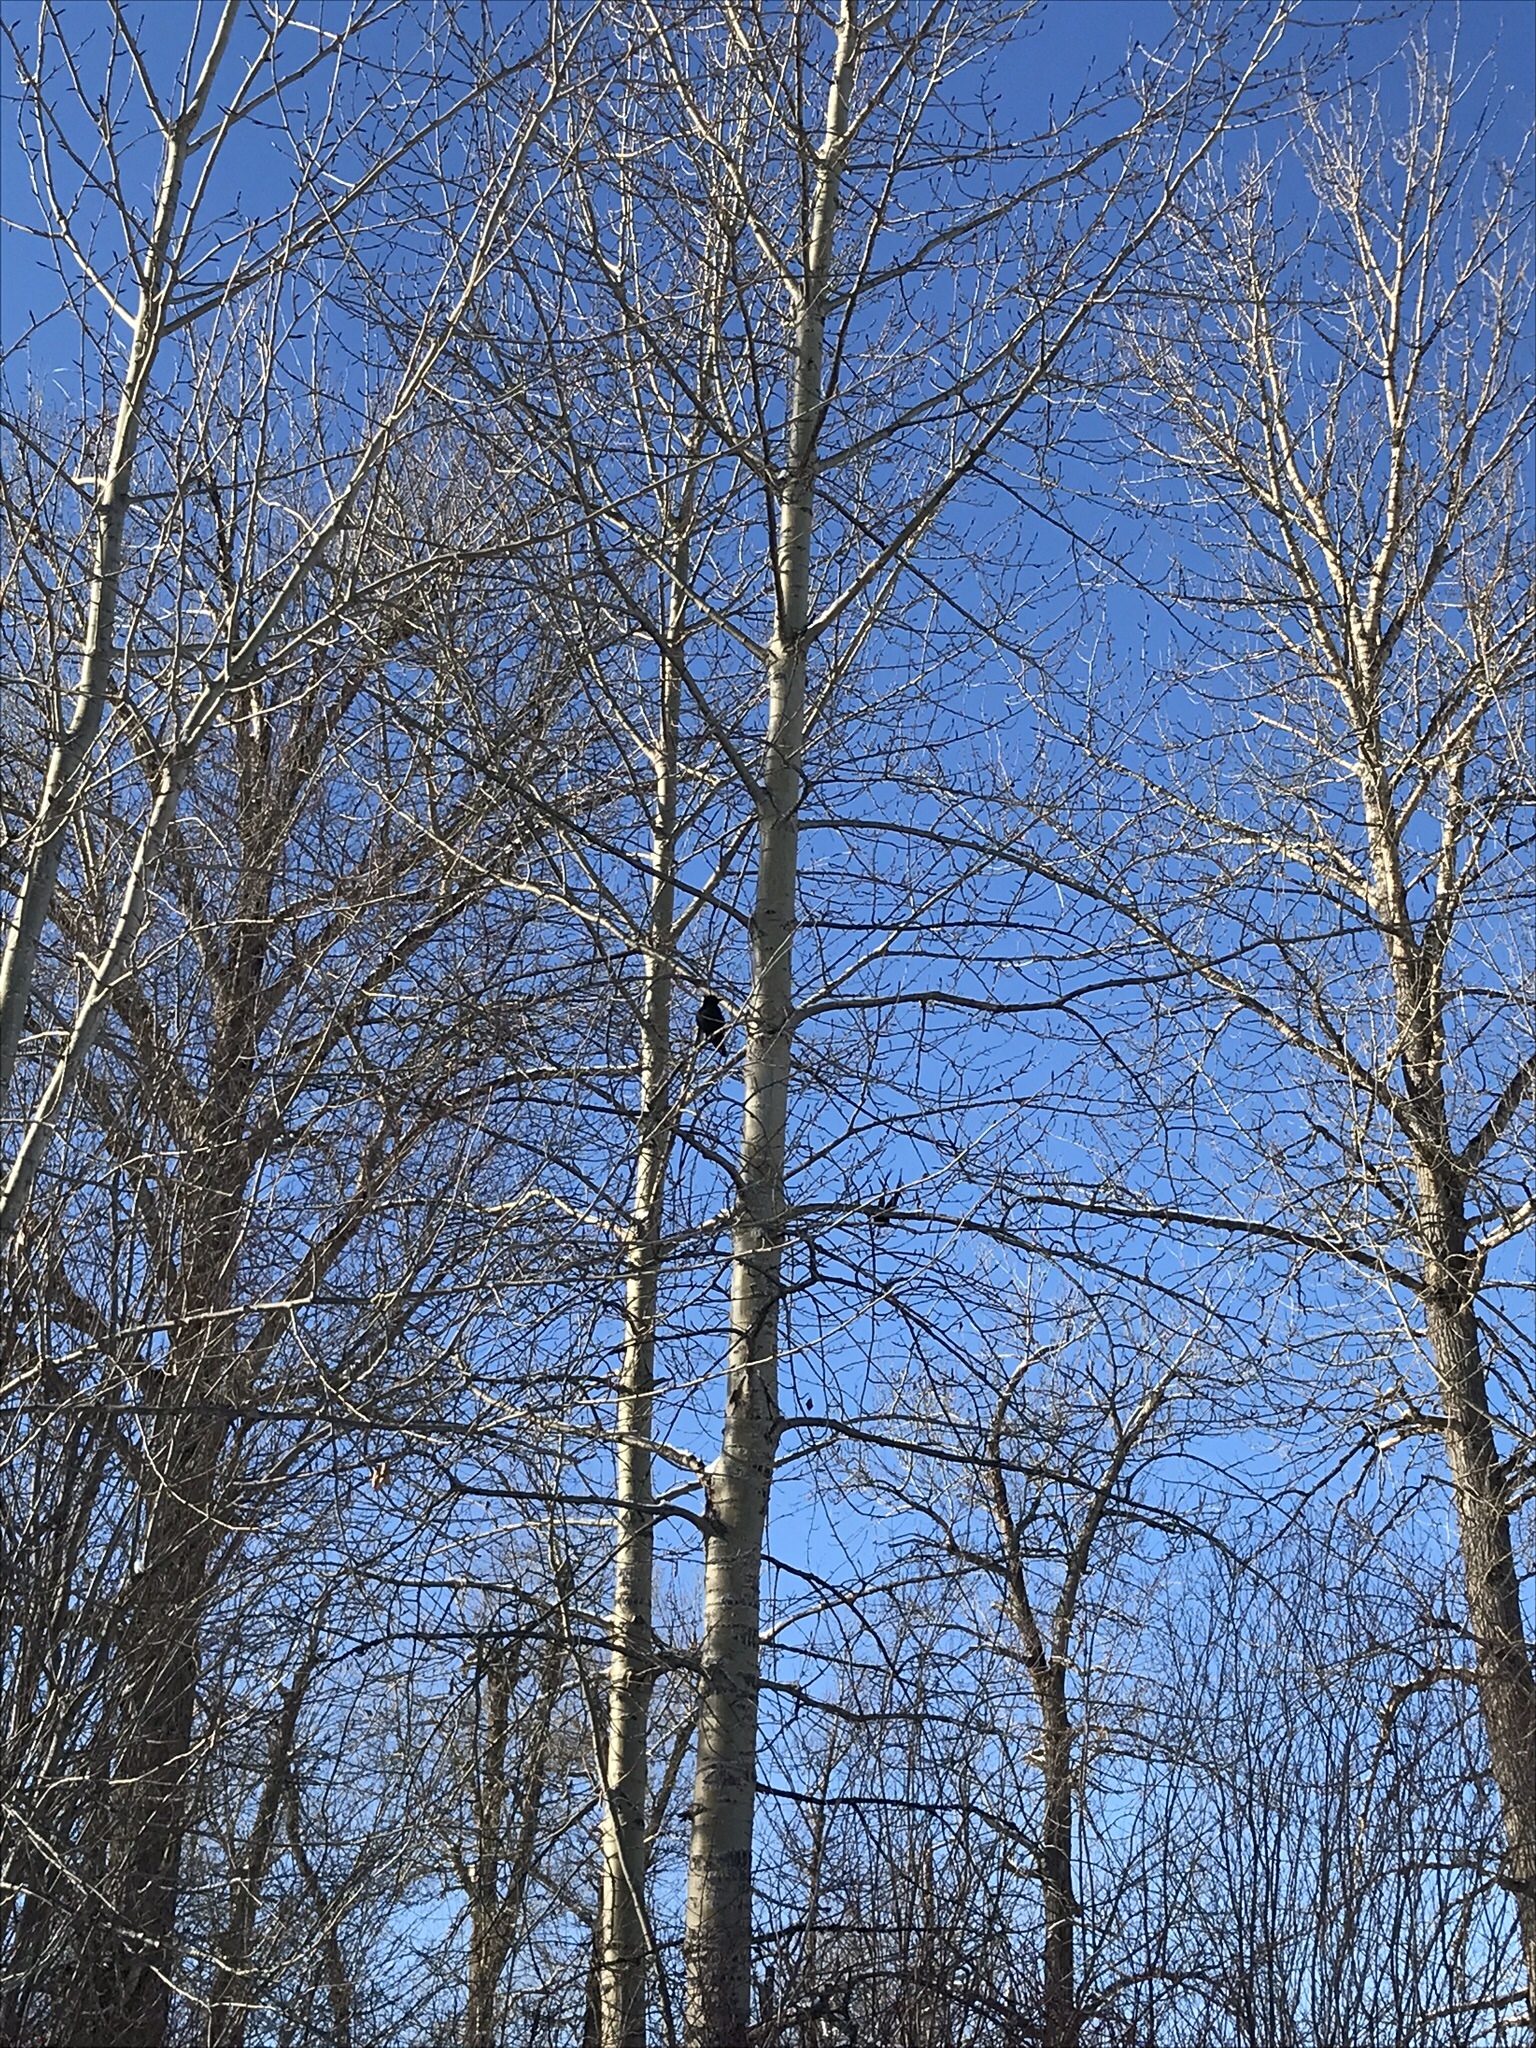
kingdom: Plantae
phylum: Tracheophyta
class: Magnoliopsida
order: Malpighiales
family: Salicaceae
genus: Populus
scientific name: Populus tremuloides
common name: Quaking aspen
